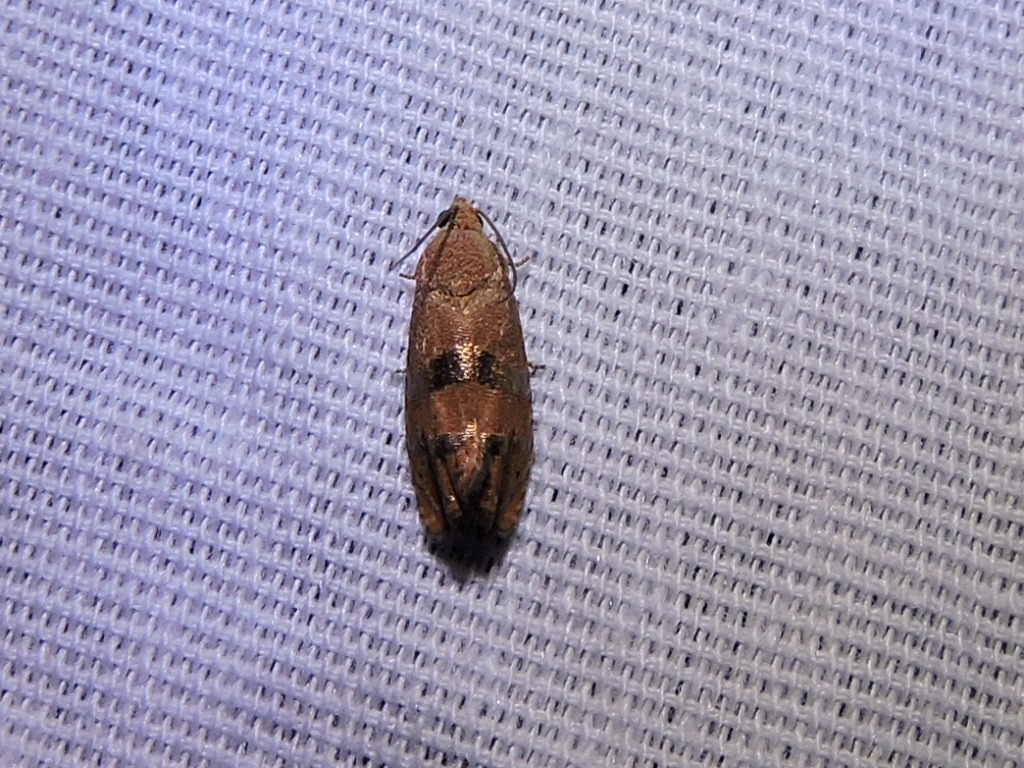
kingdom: Animalia
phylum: Arthropoda
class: Insecta
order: Lepidoptera
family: Tortricidae
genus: Cydia
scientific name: Cydia latiferreana
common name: Filbertworm moth
